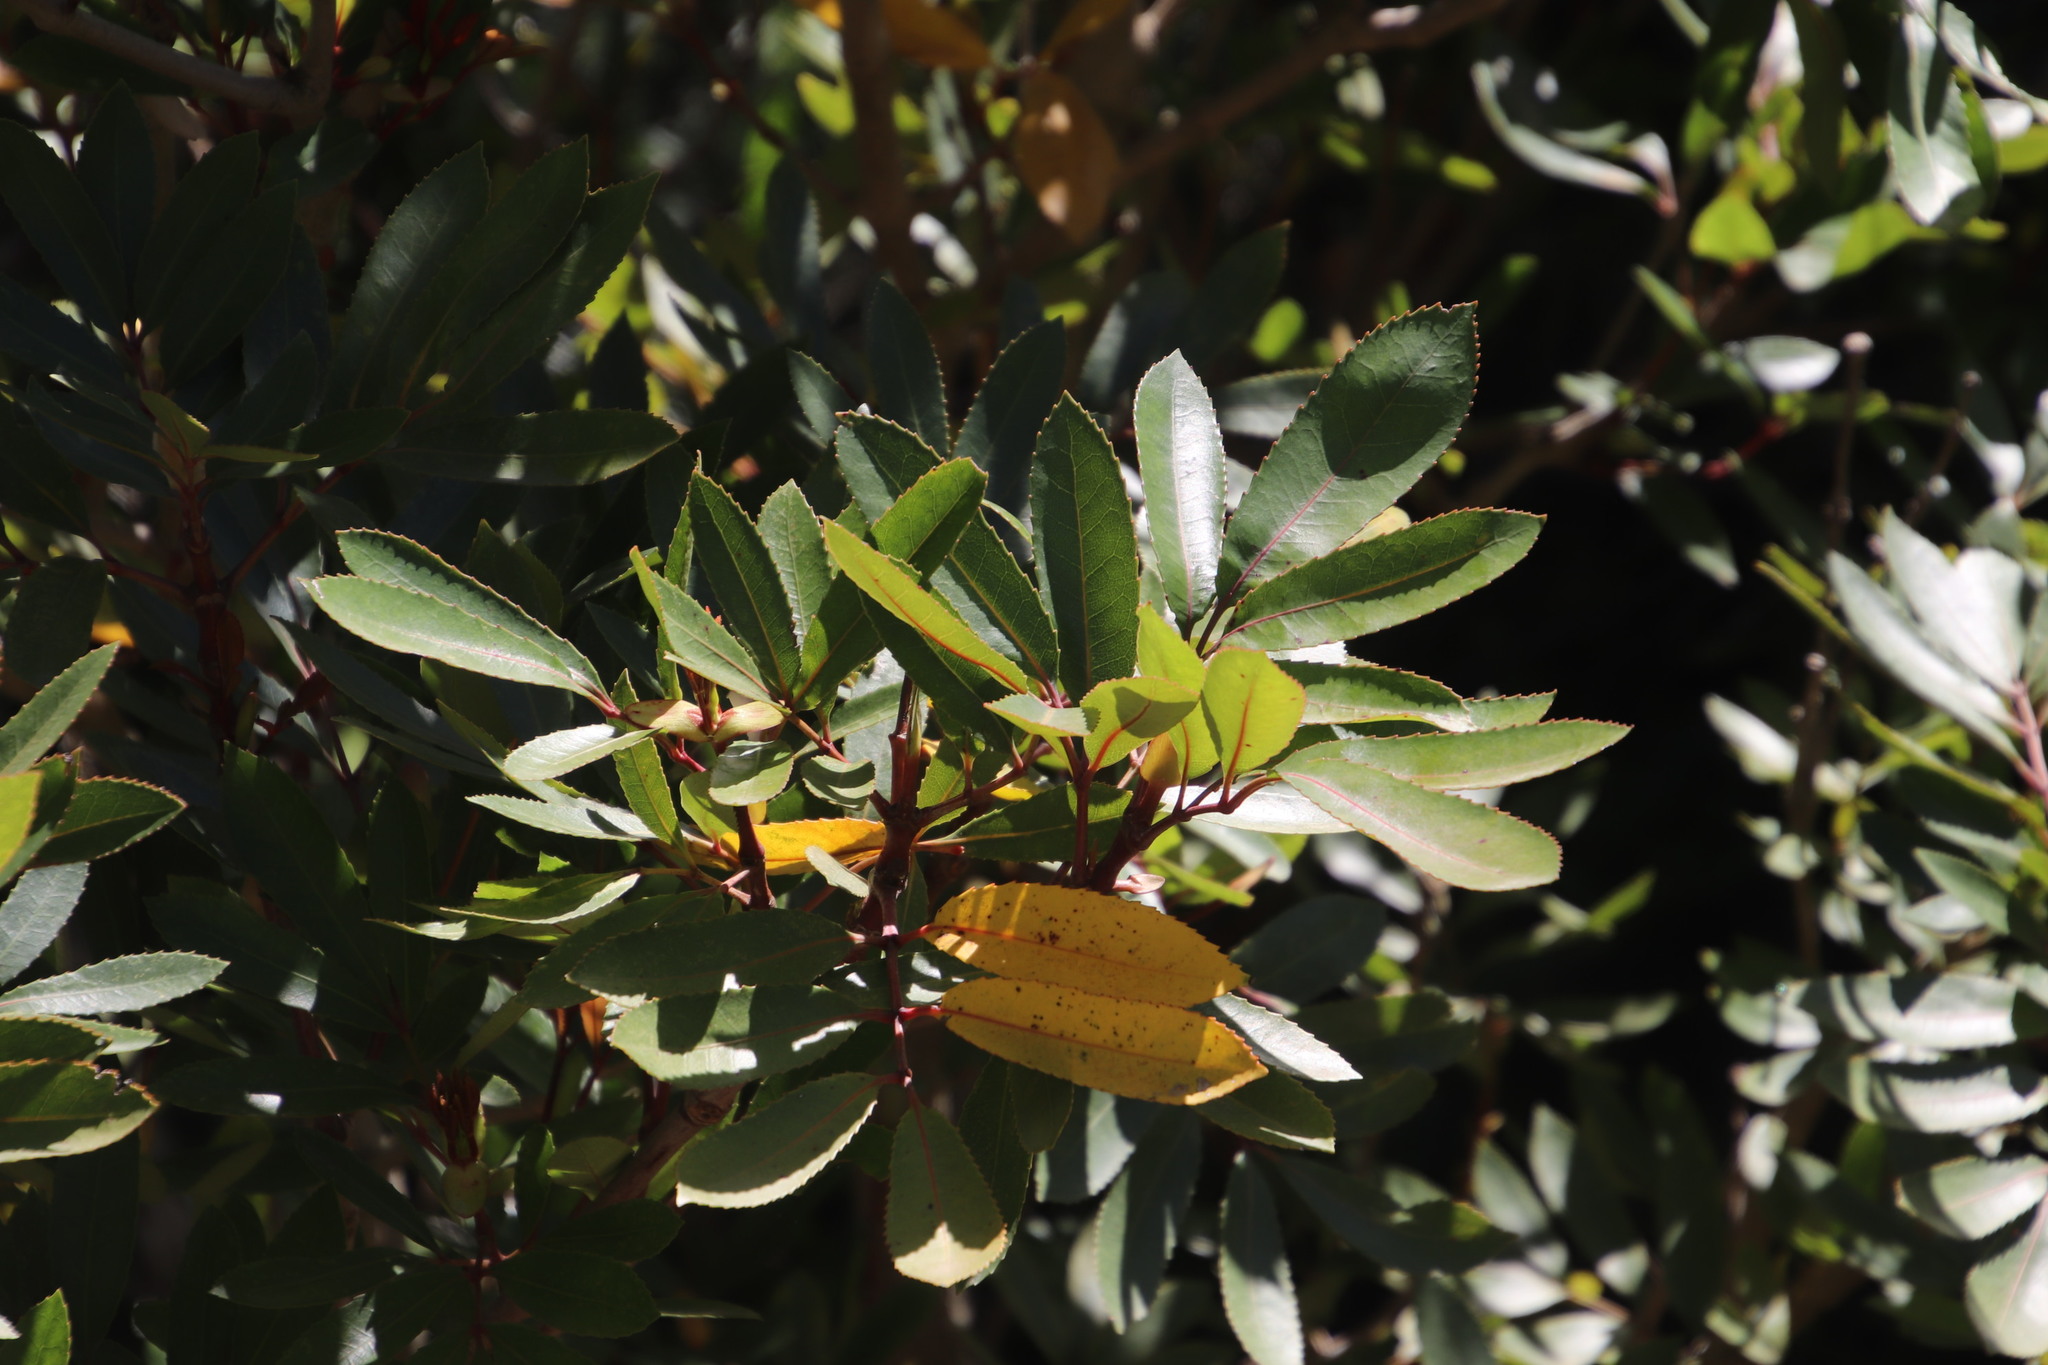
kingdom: Plantae
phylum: Tracheophyta
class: Magnoliopsida
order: Oxalidales
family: Cunoniaceae
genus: Cunonia
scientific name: Cunonia capensis
